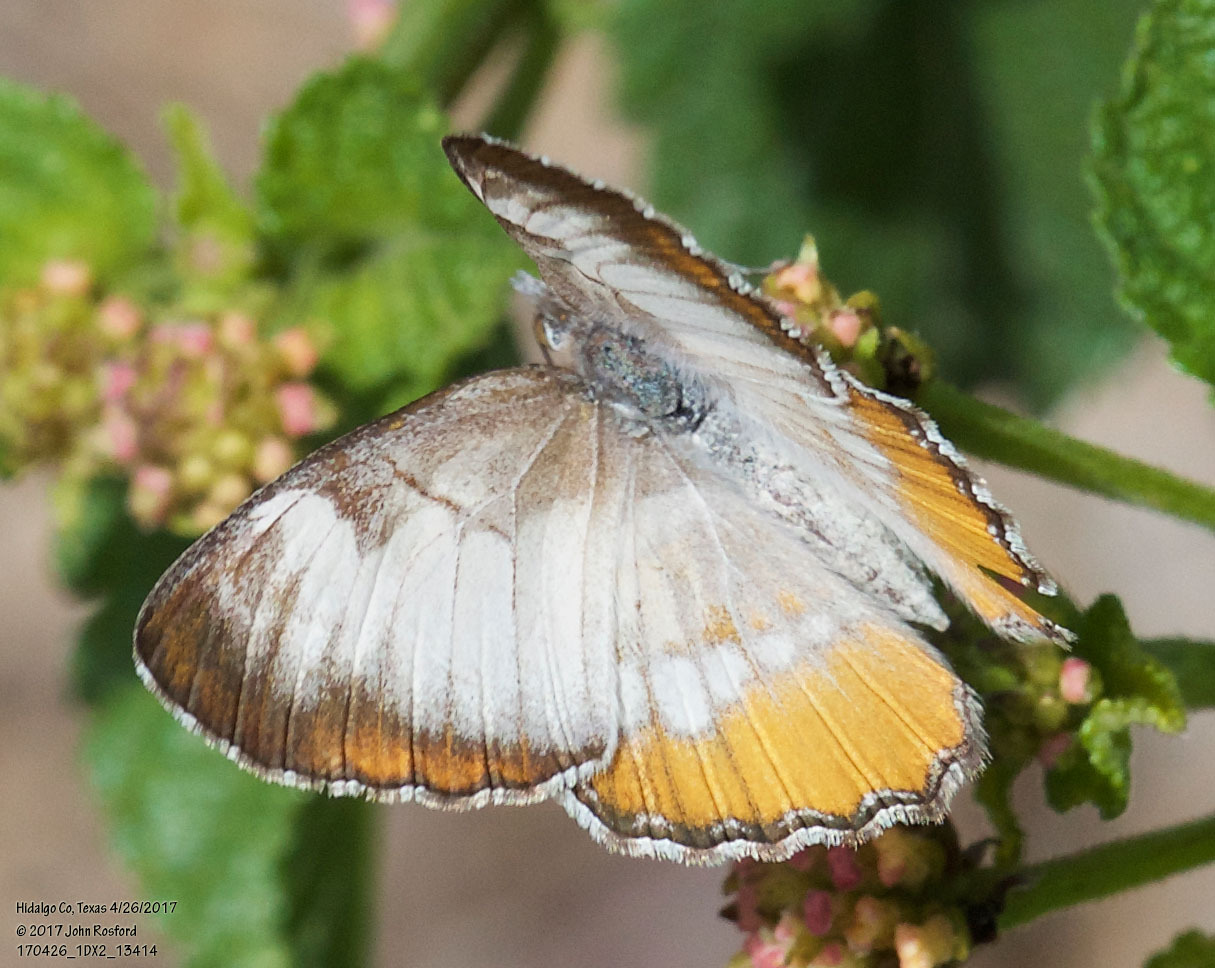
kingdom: Animalia
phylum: Arthropoda
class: Insecta
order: Lepidoptera
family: Nymphalidae
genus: Mestra
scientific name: Mestra amymone
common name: Common mestra
